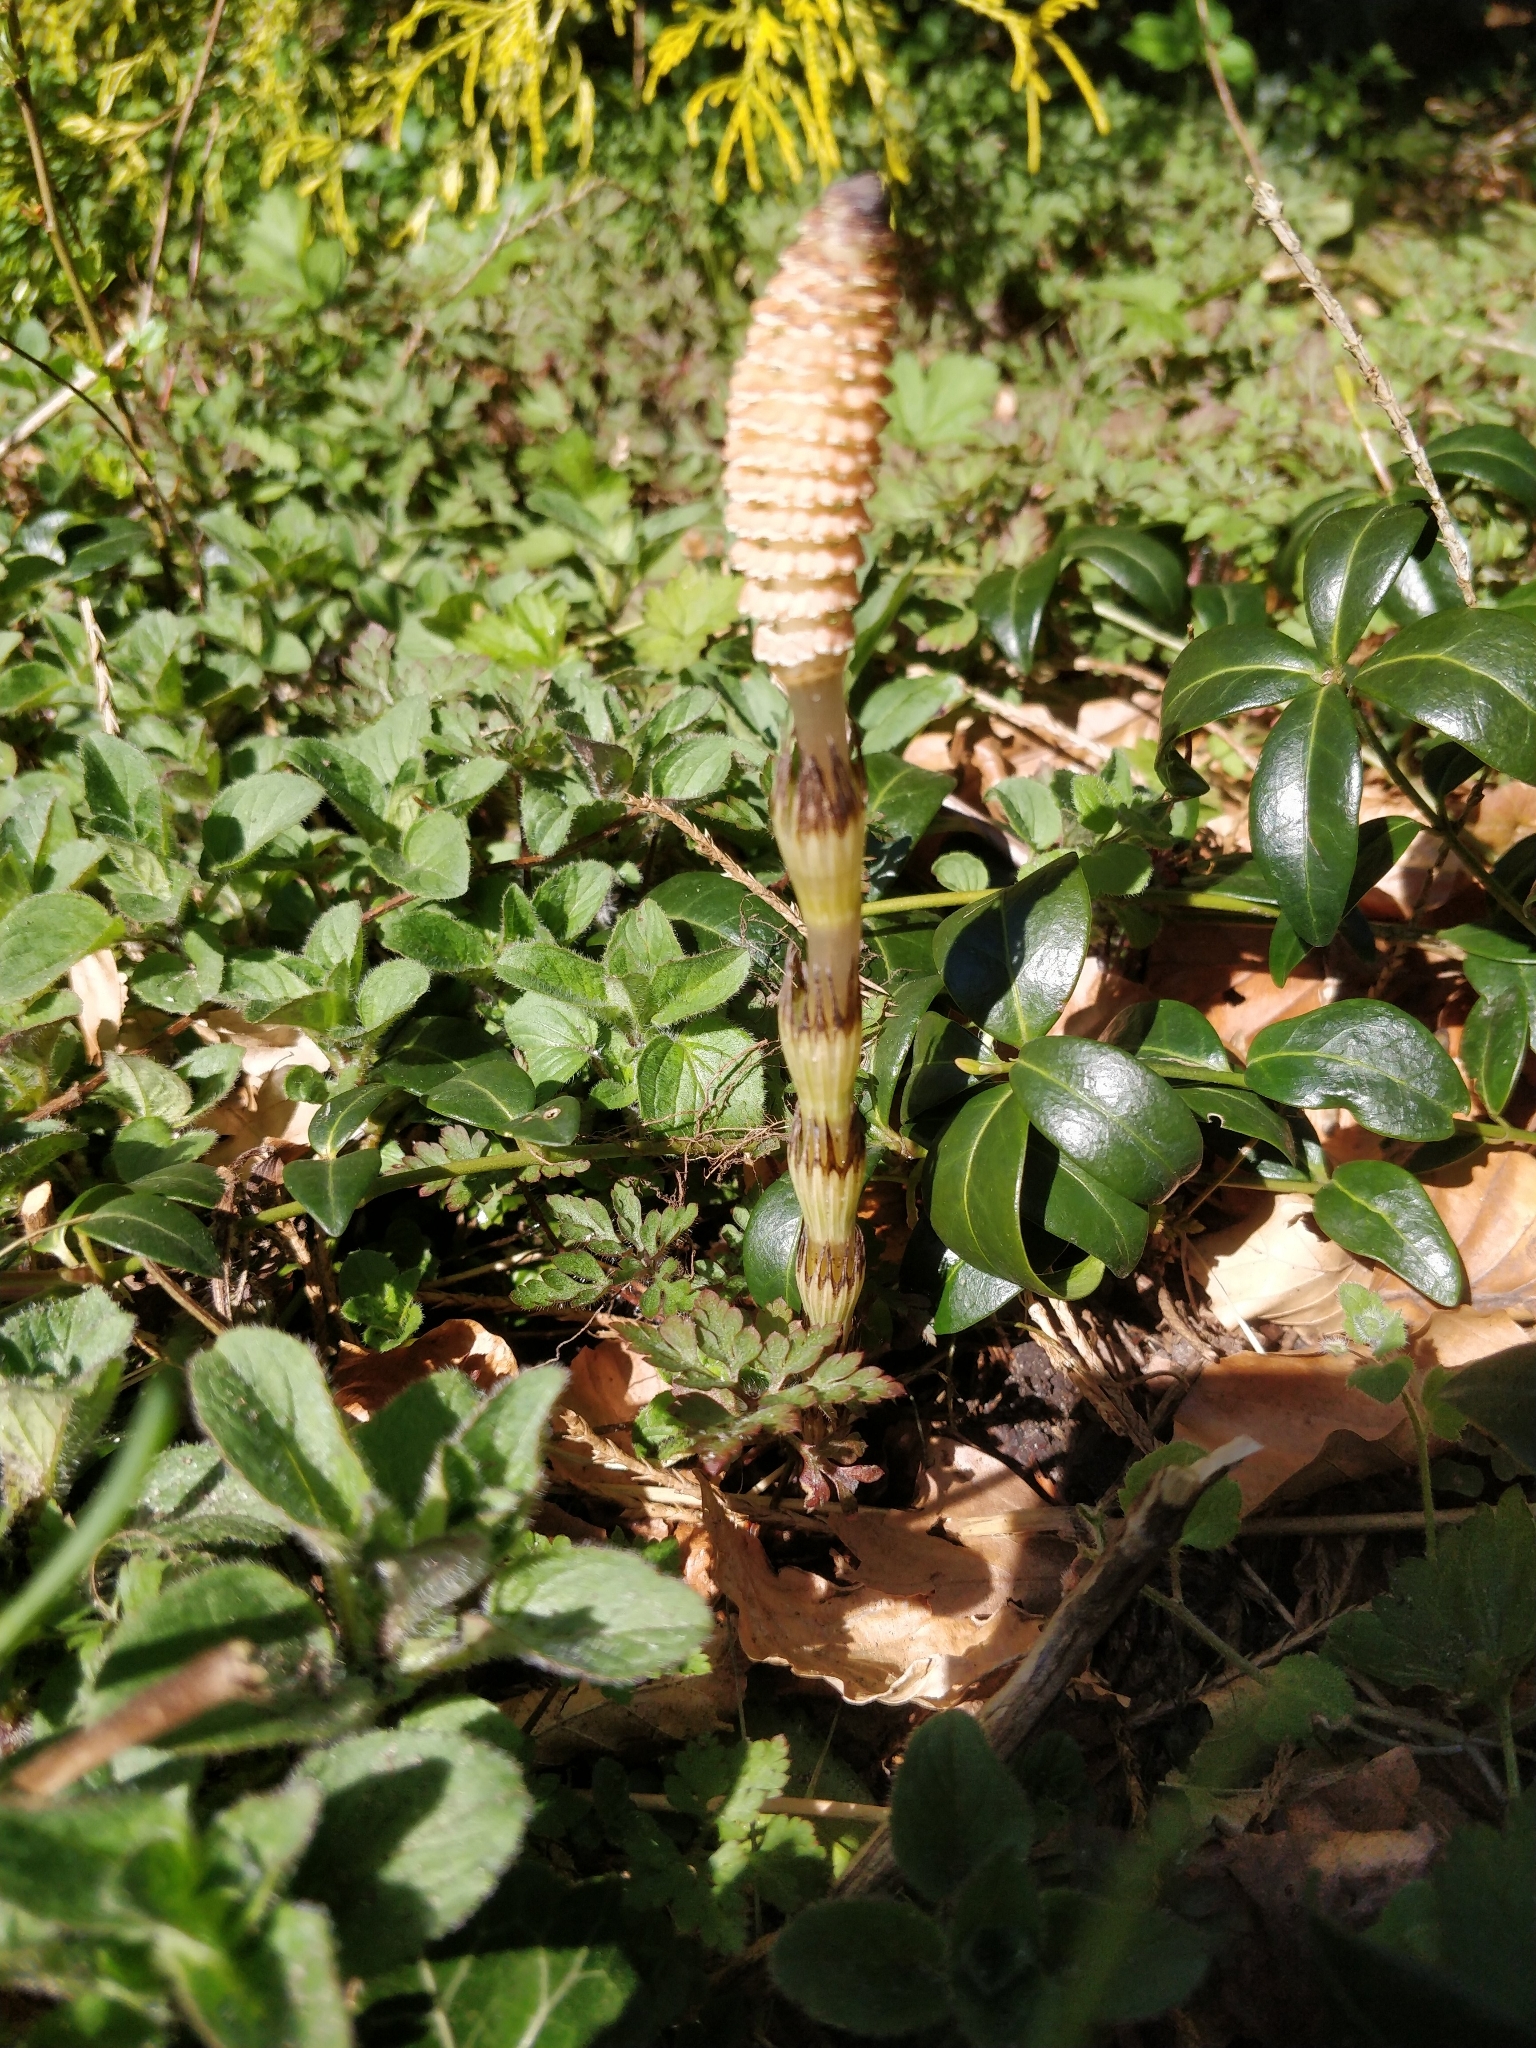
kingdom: Plantae
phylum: Tracheophyta
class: Polypodiopsida
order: Equisetales
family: Equisetaceae
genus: Equisetum
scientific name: Equisetum arvense
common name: Field horsetail
